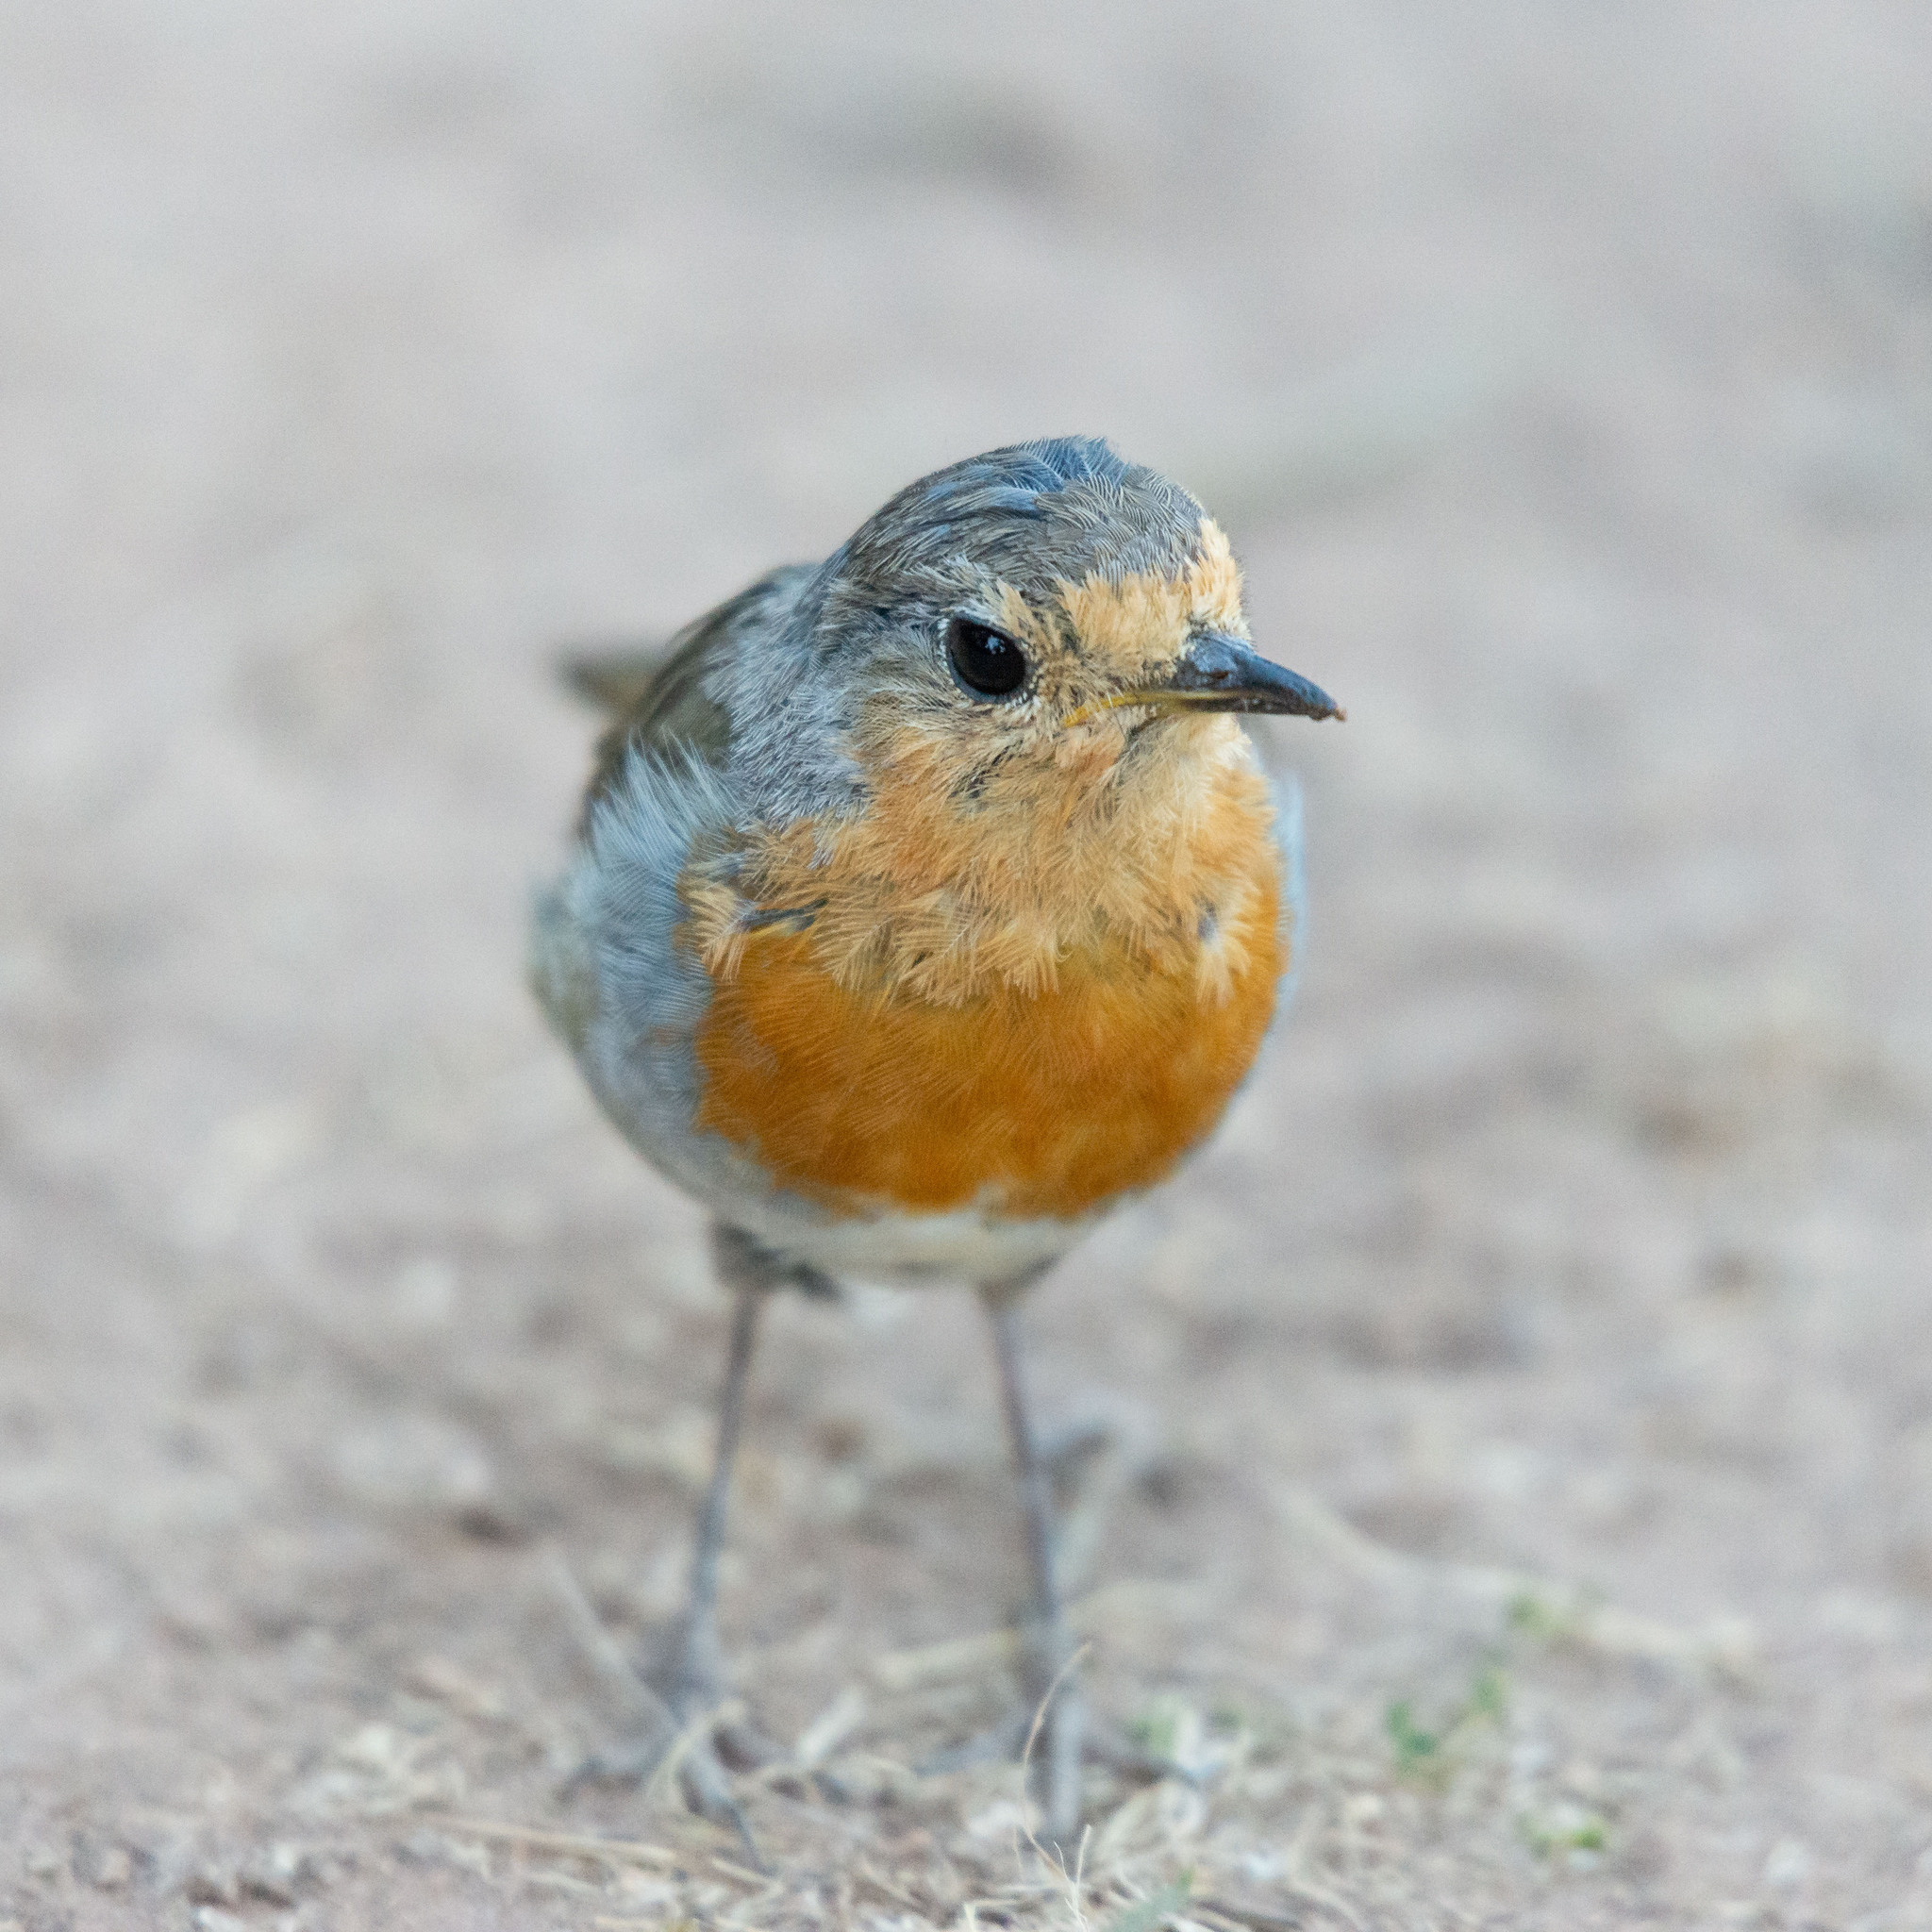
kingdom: Animalia
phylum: Chordata
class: Aves
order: Passeriformes
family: Muscicapidae
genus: Erithacus
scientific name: Erithacus rubecula
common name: European robin
